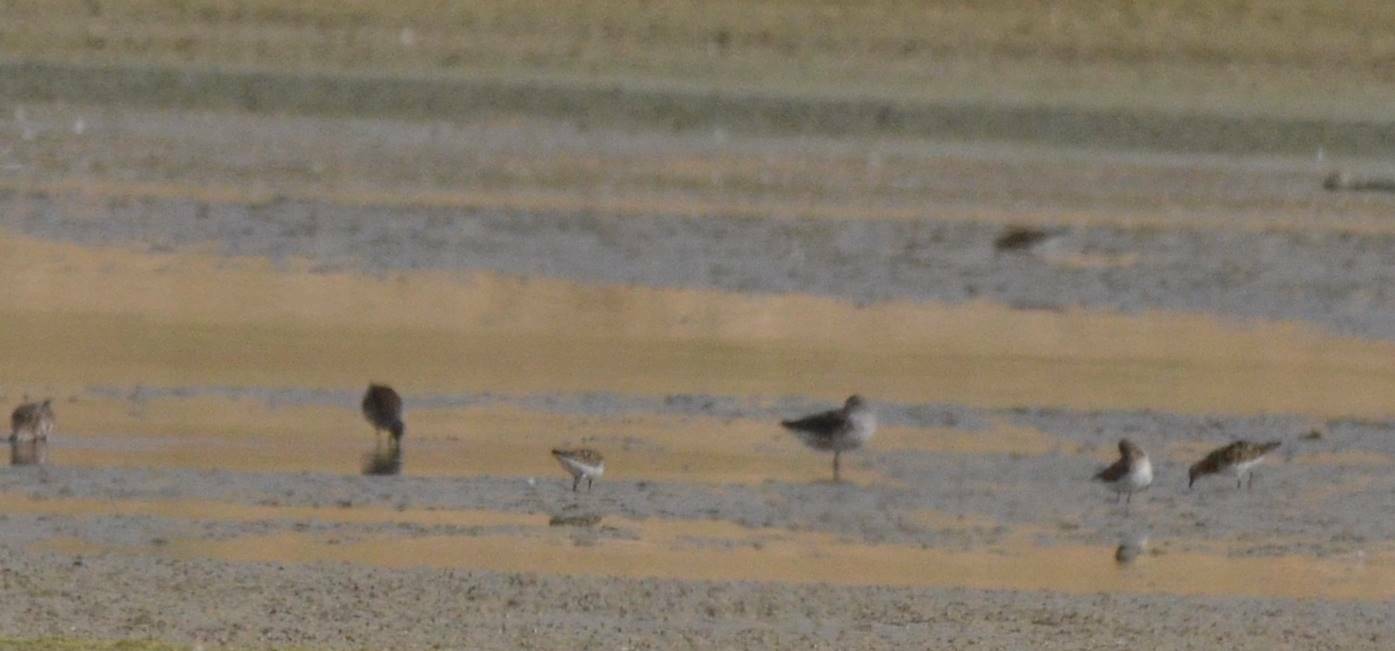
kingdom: Animalia
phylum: Chordata
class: Aves
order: Charadriiformes
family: Scolopacidae
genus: Calidris
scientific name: Calidris pugnax
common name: Ruff
